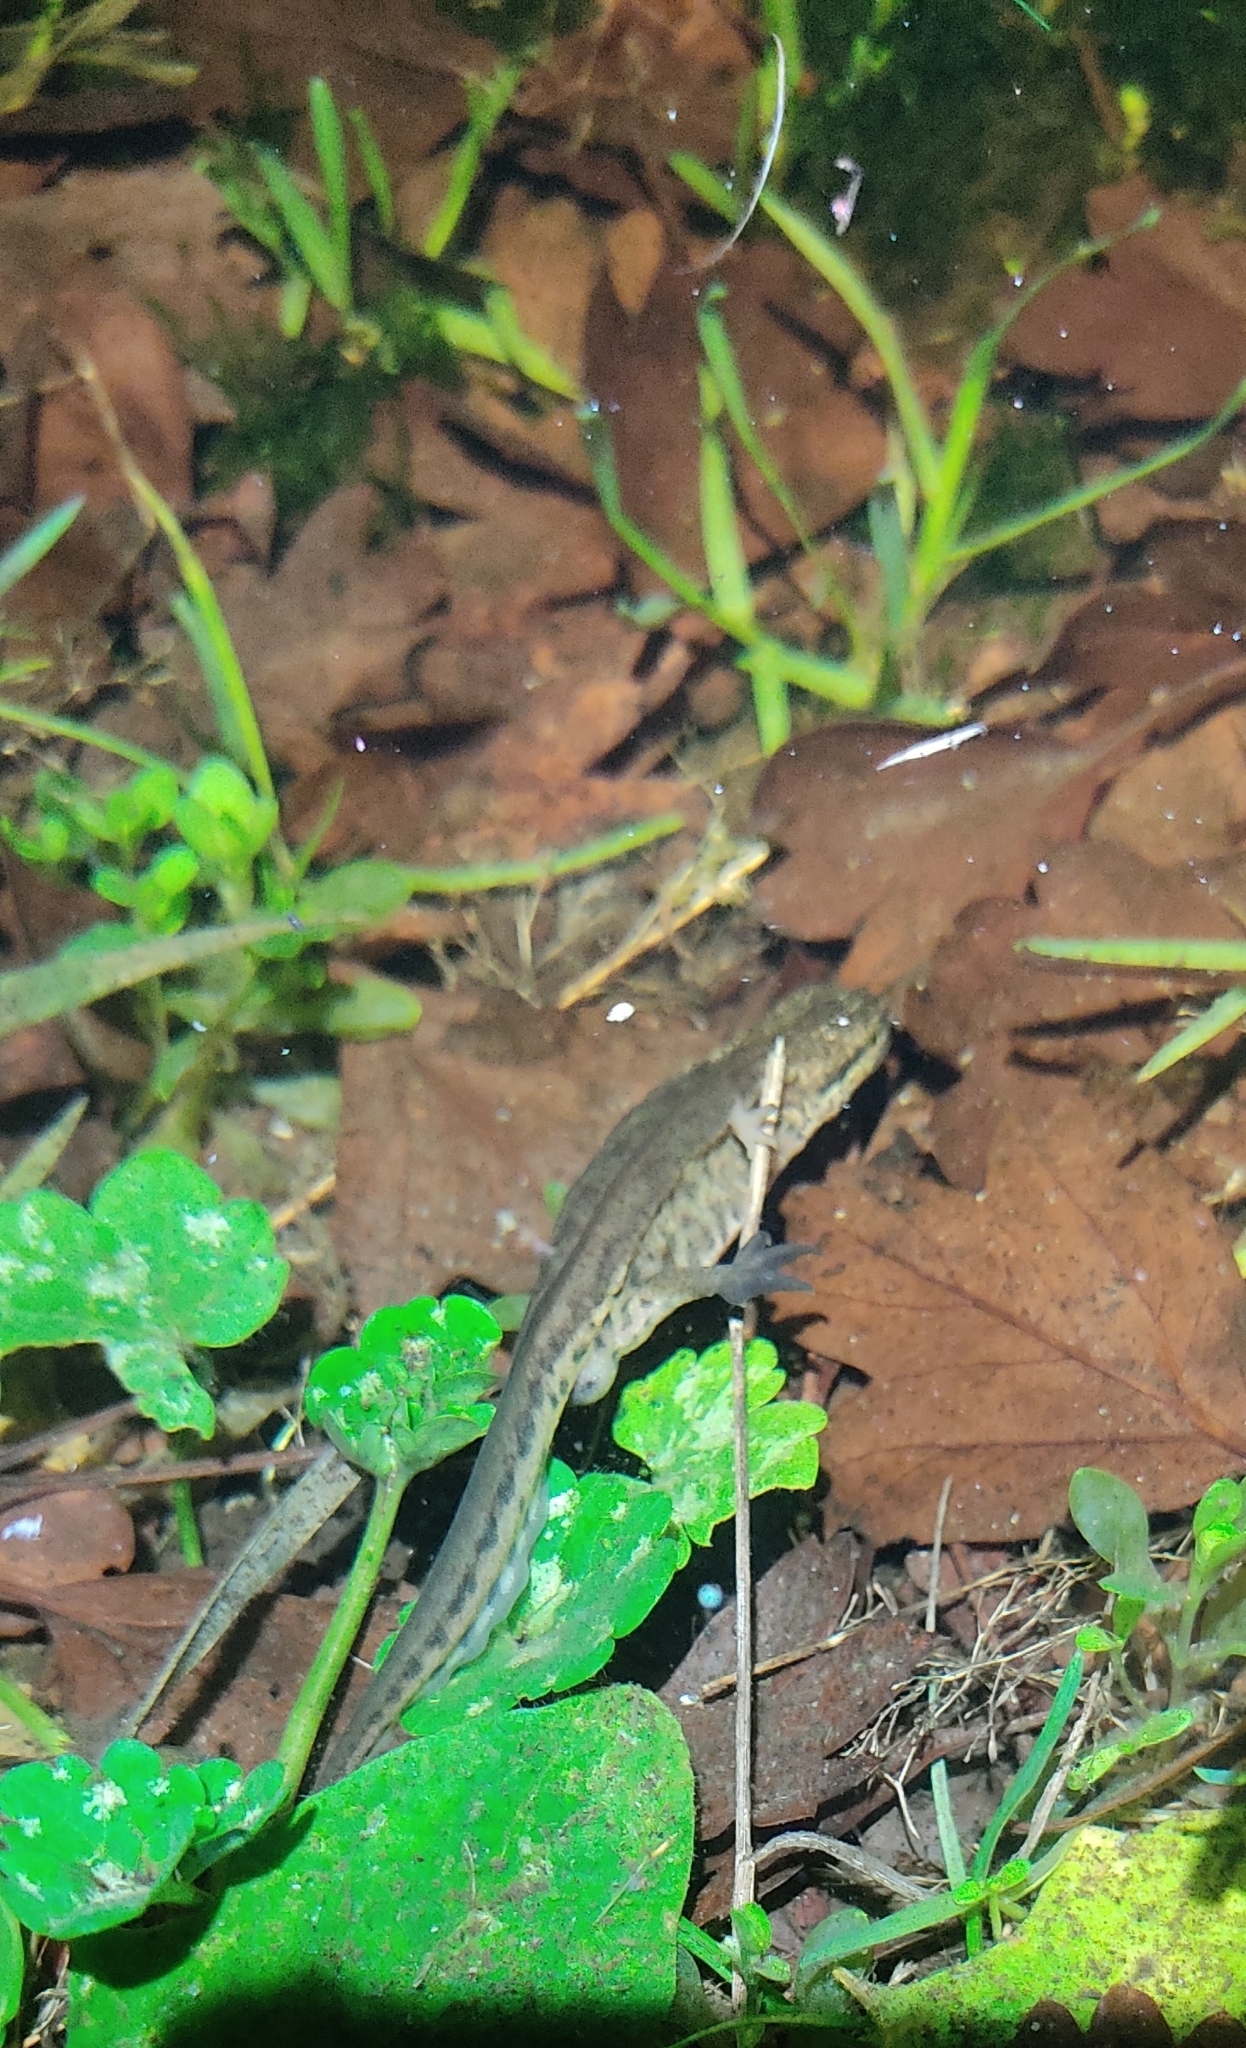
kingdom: Animalia
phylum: Chordata
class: Amphibia
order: Caudata
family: Salamandridae
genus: Lissotriton
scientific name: Lissotriton helveticus
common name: Palmate newt
